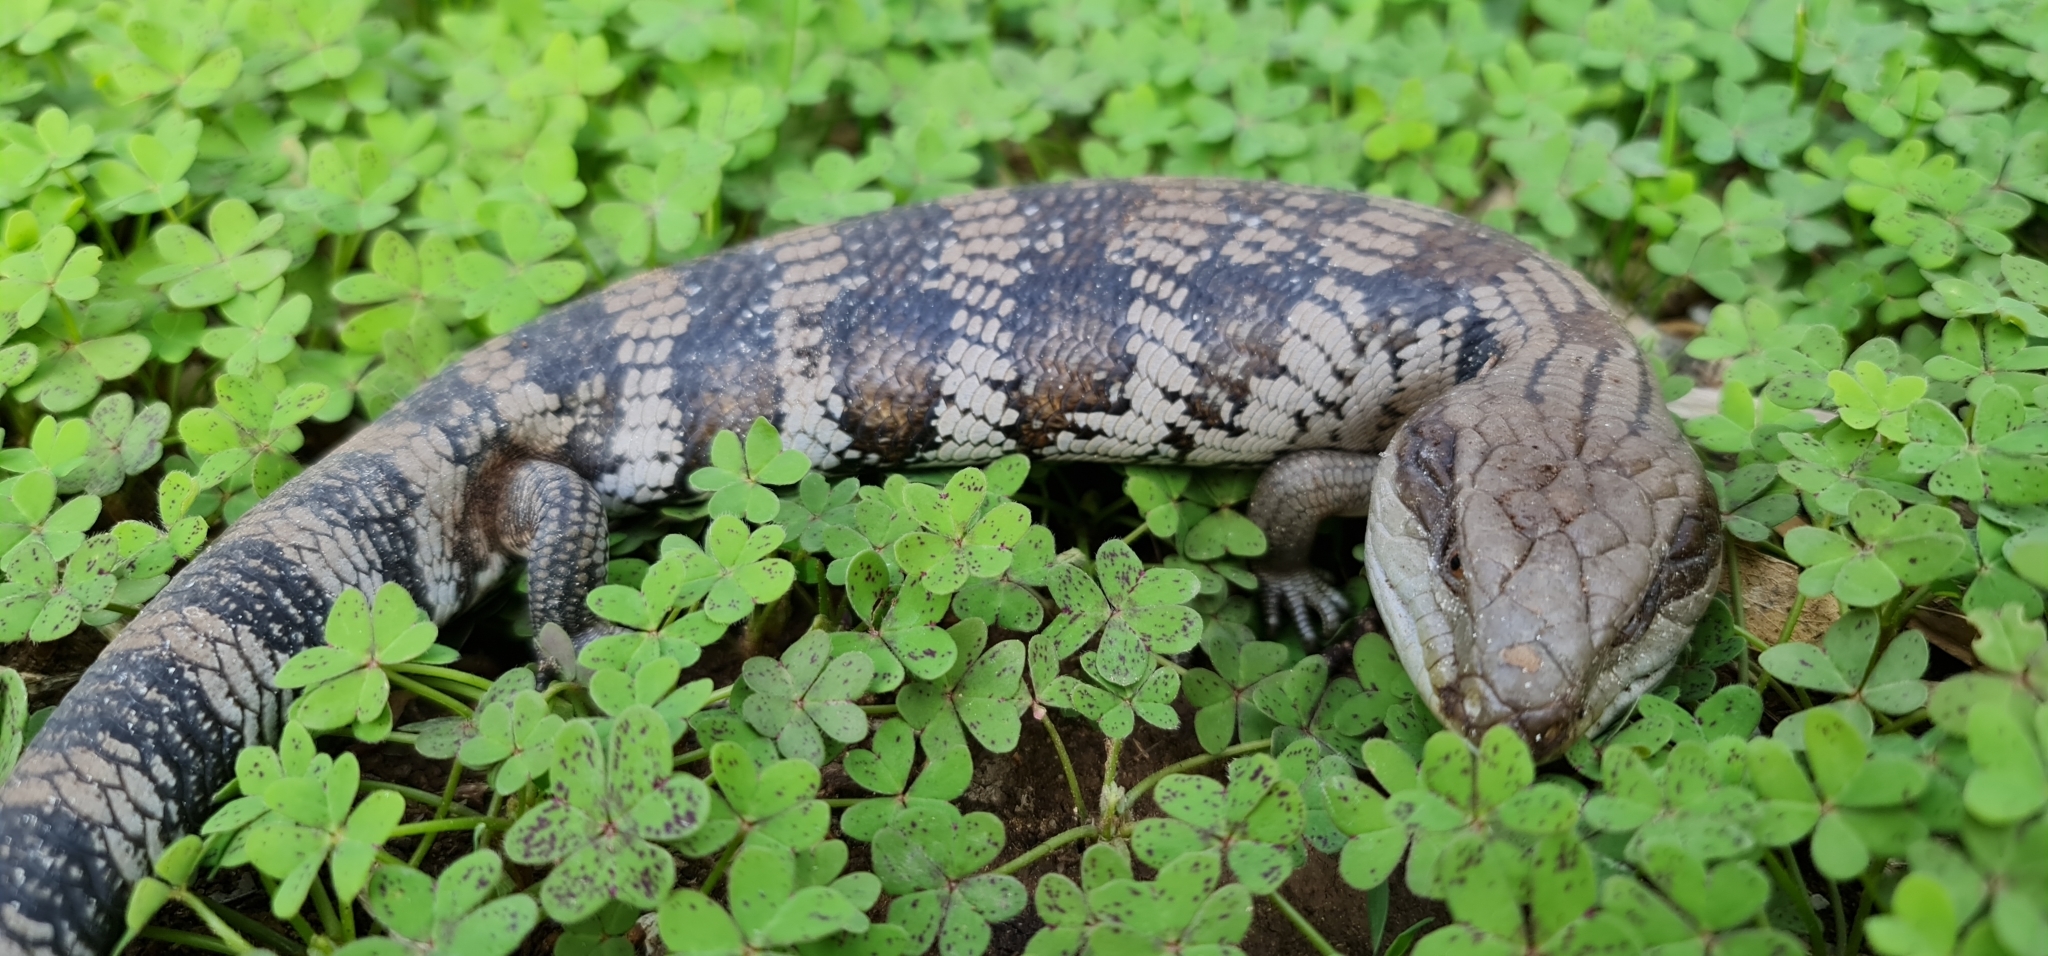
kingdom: Animalia
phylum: Chordata
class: Squamata
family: Scincidae
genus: Tiliqua
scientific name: Tiliqua scincoides
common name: Common bluetongue
